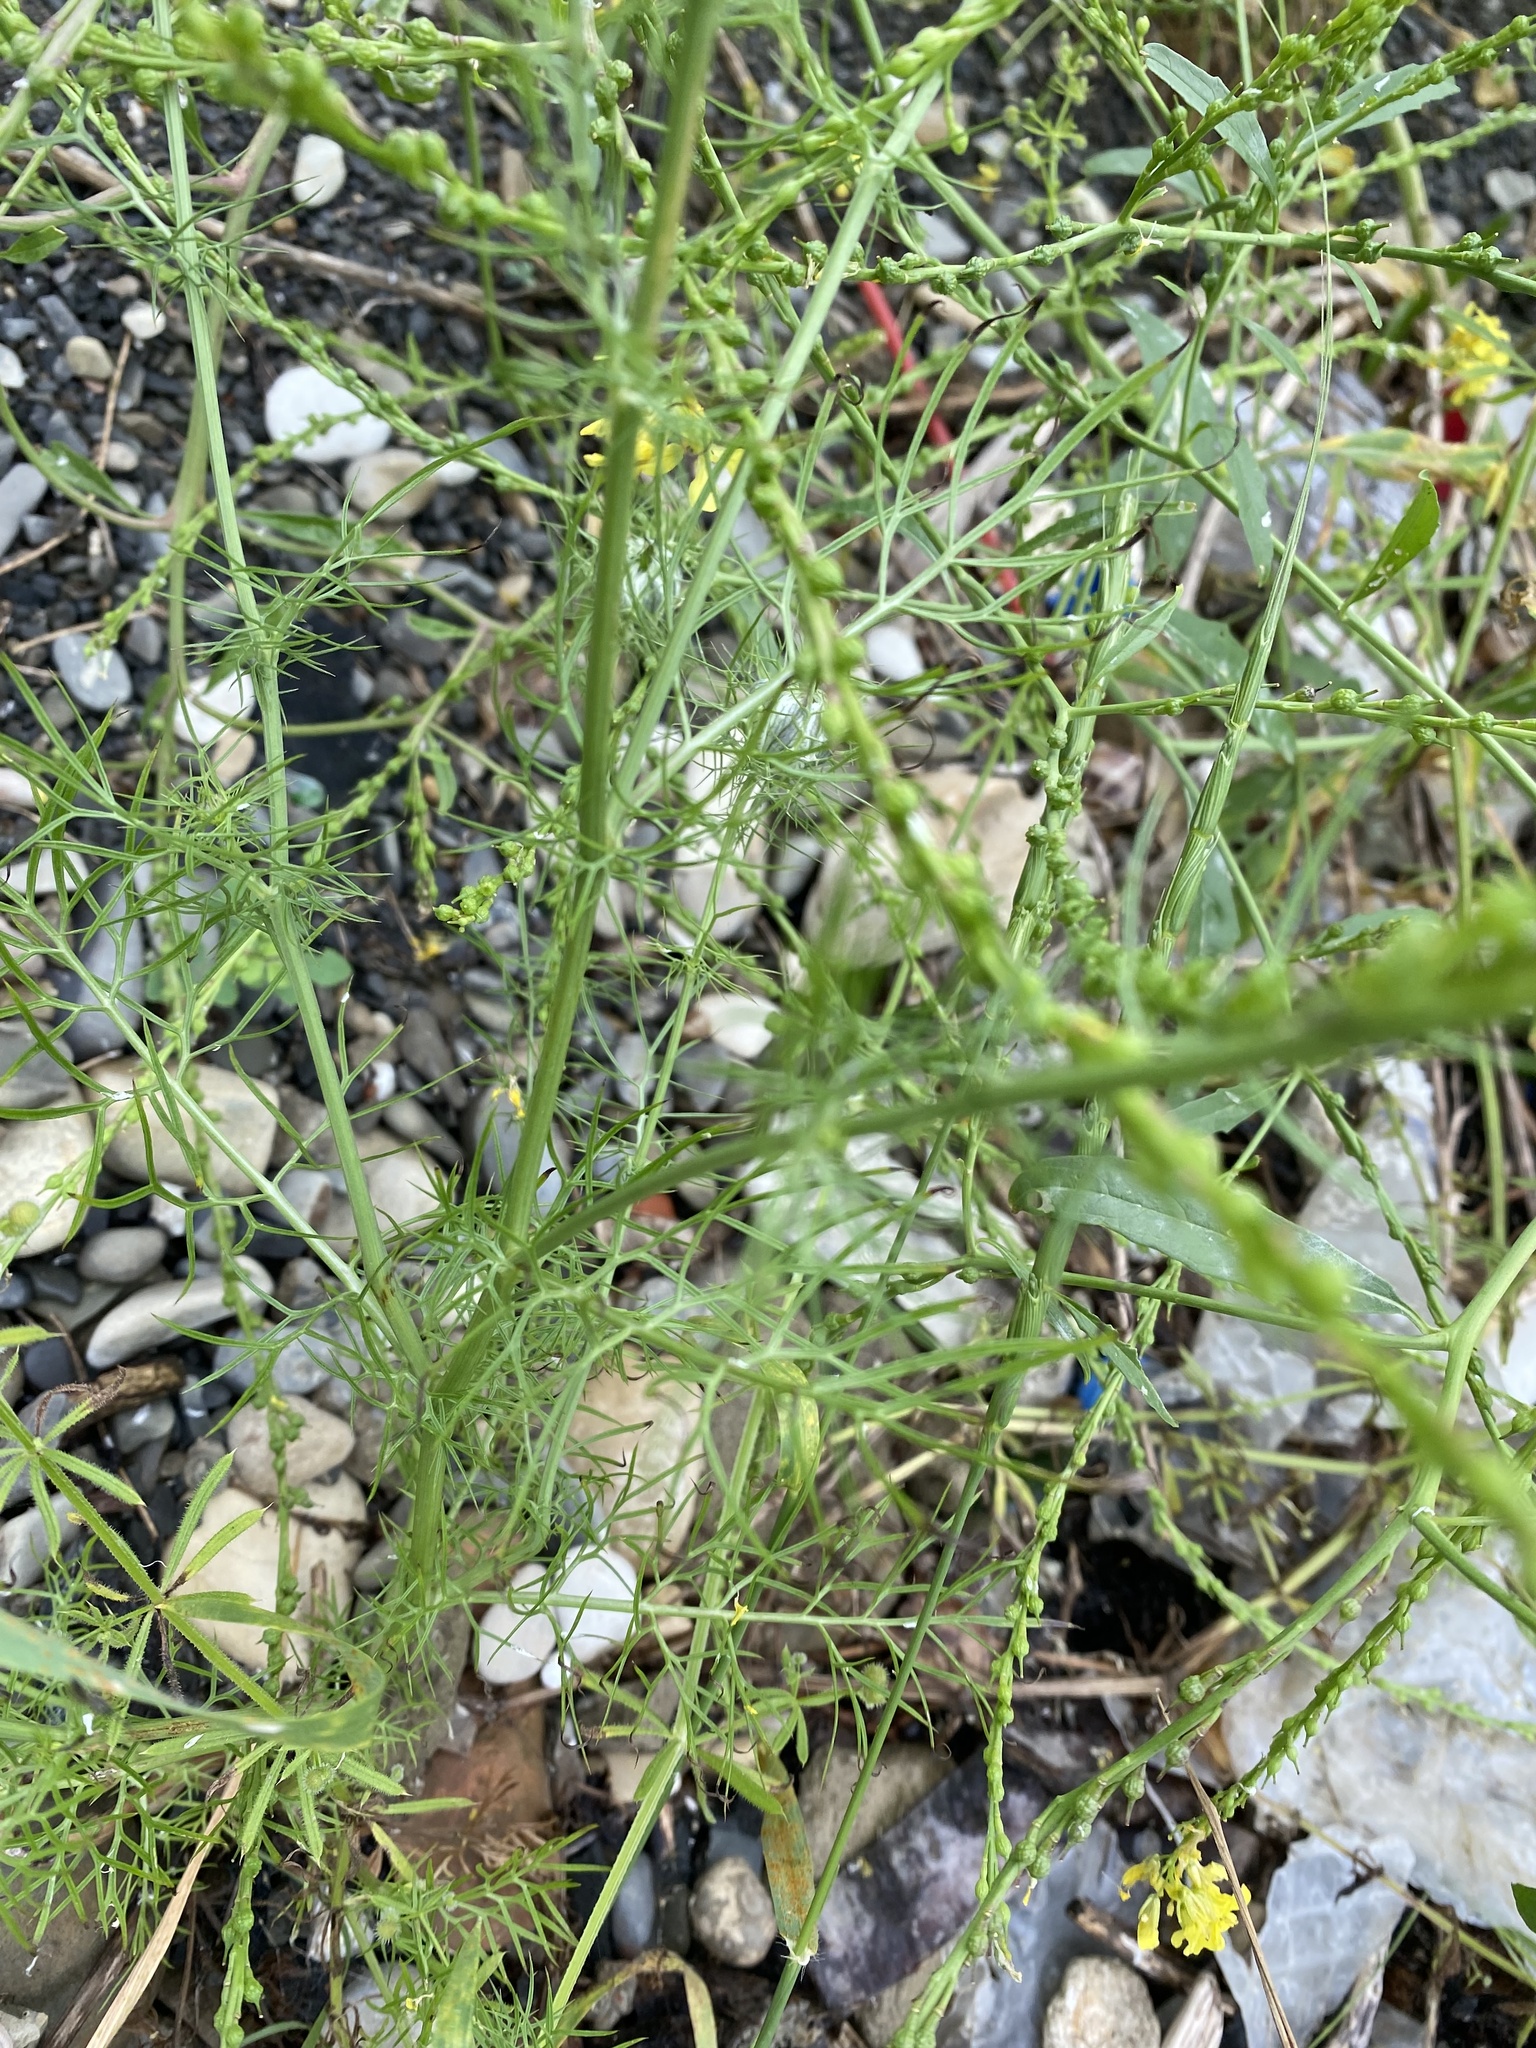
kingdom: Plantae
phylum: Tracheophyta
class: Magnoliopsida
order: Ranunculales
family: Ranunculaceae
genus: Nigella
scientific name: Nigella damascena
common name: Love-in-a-mist
